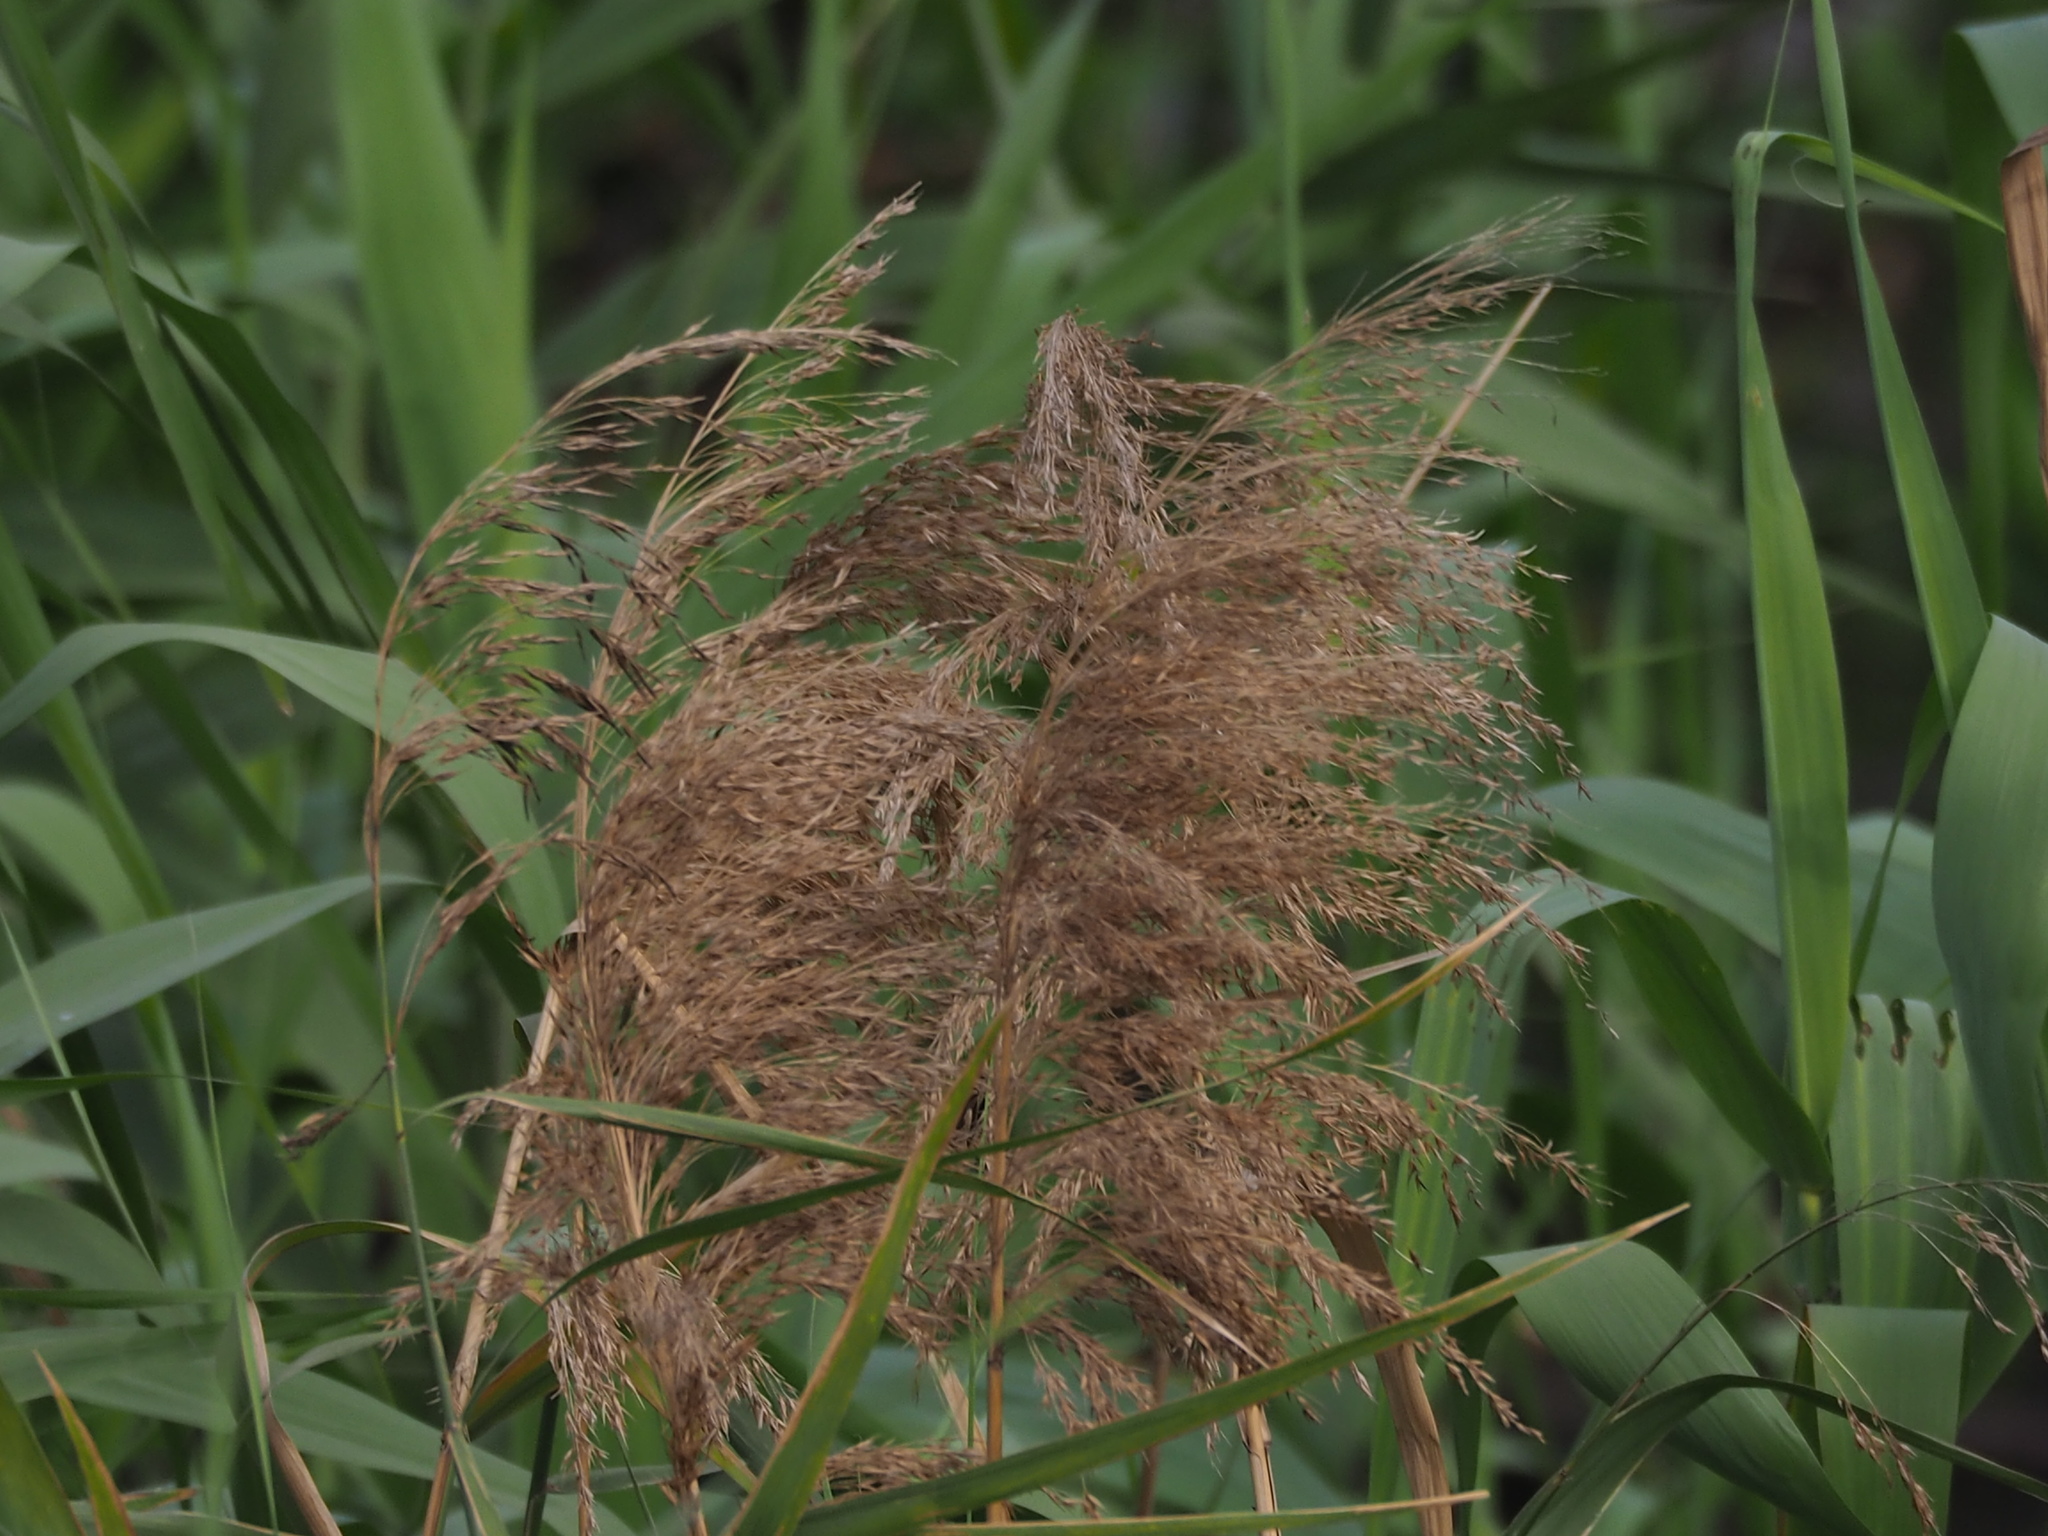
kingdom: Plantae
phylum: Tracheophyta
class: Liliopsida
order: Poales
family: Poaceae
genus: Phragmites
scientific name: Phragmites australis
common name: Common reed
